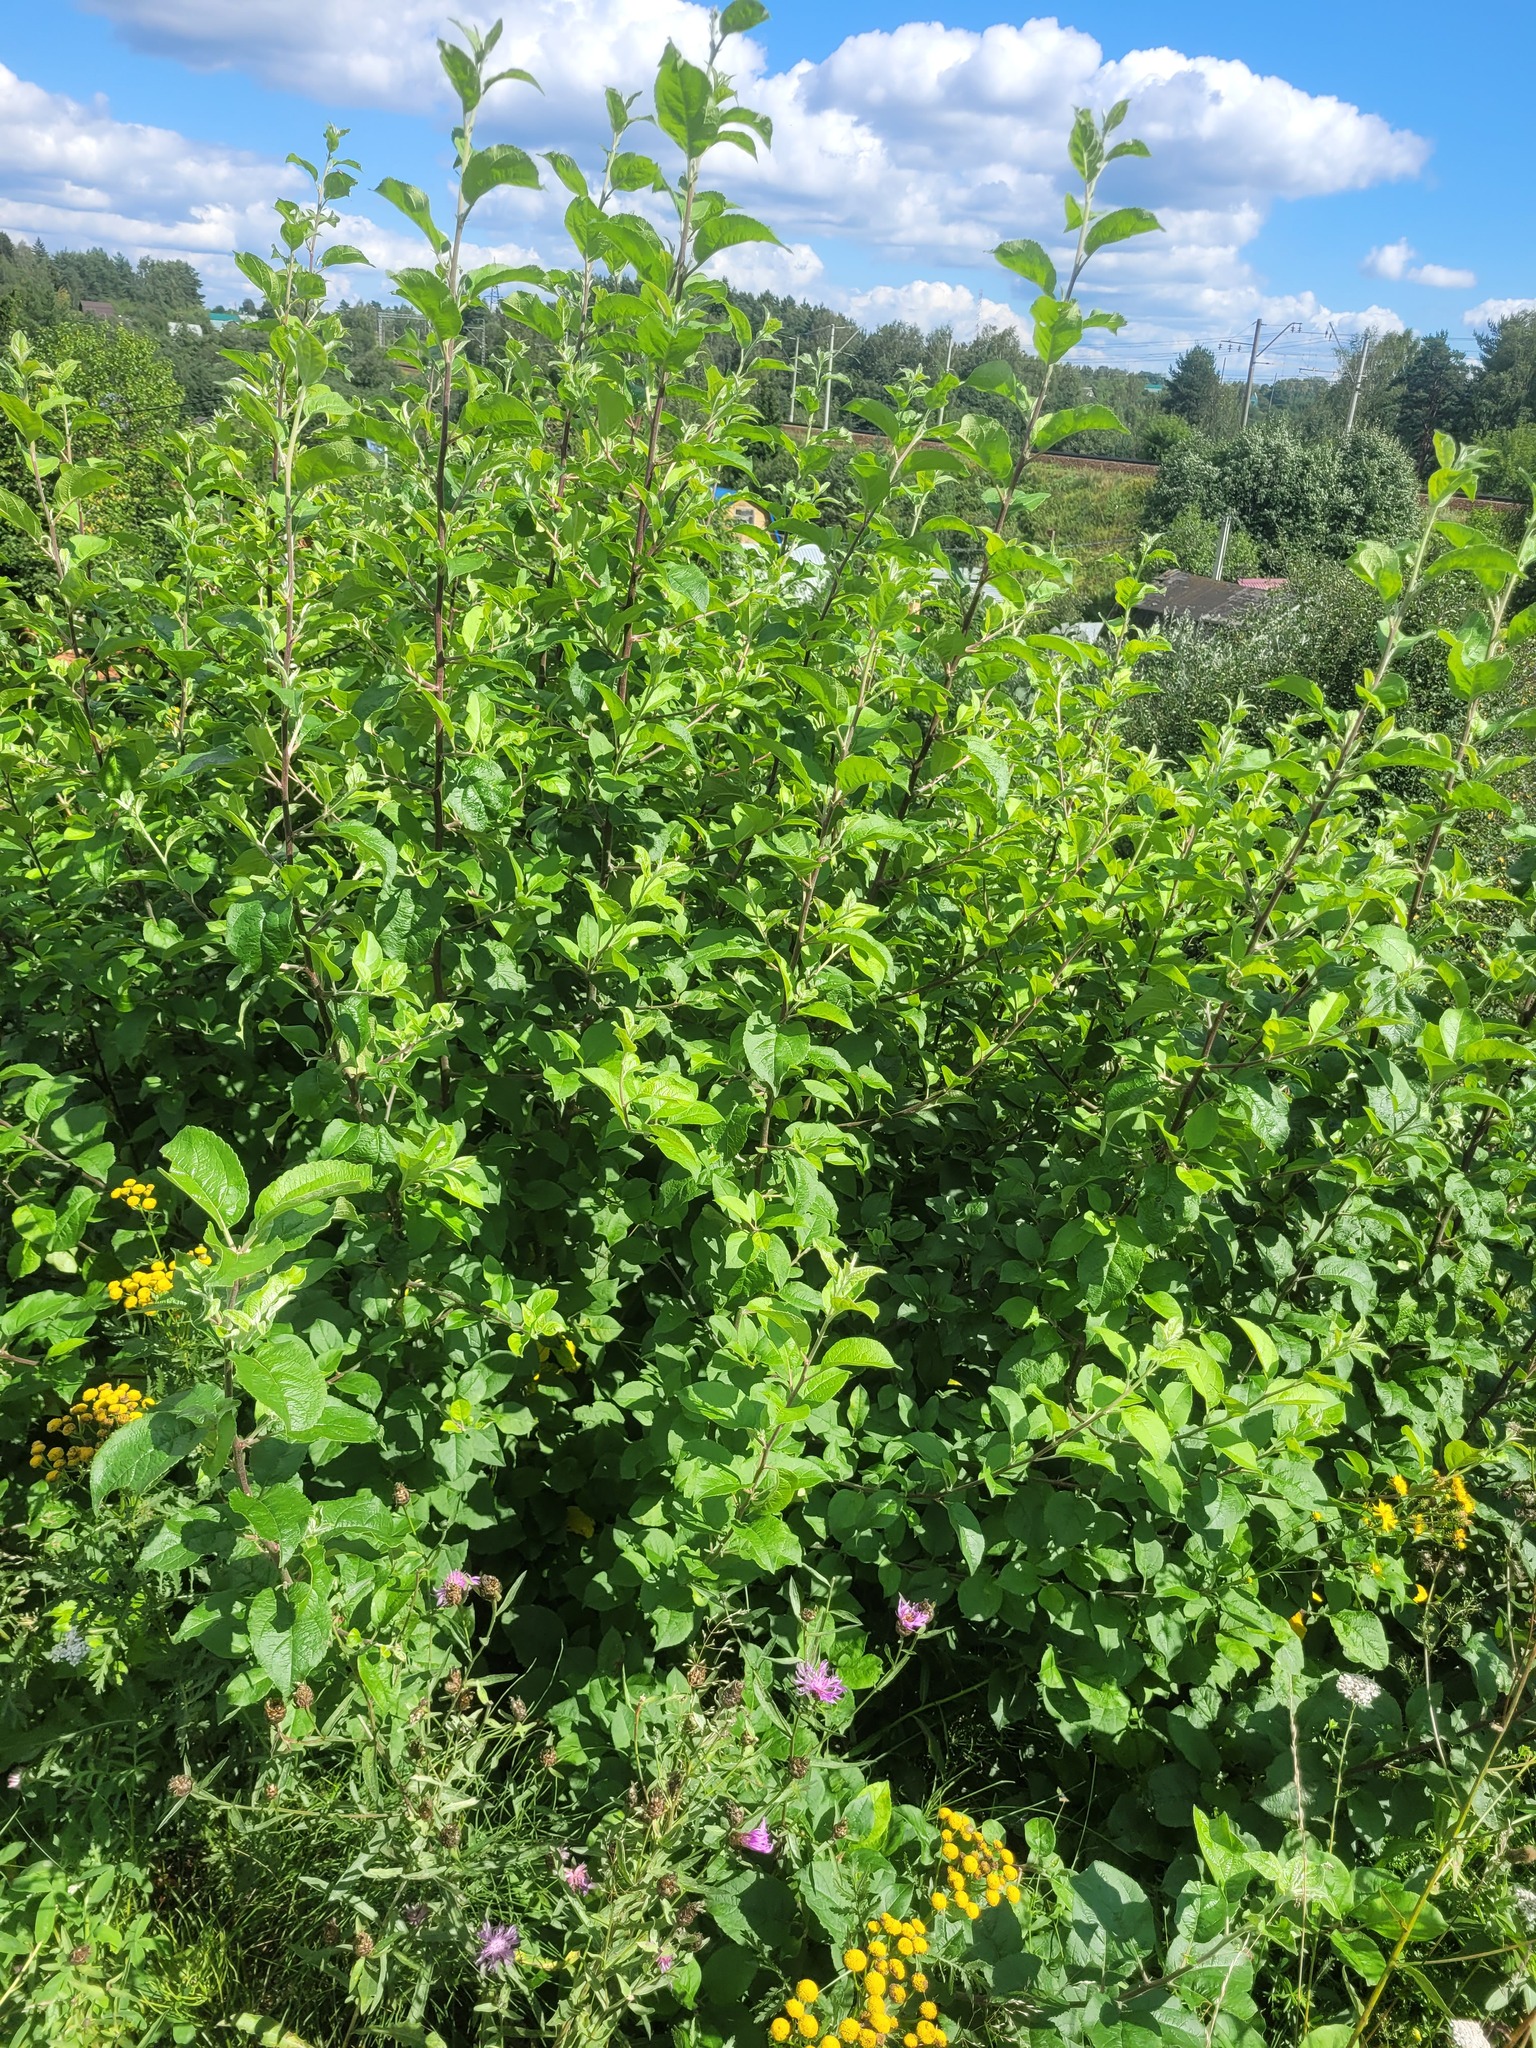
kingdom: Plantae
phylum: Tracheophyta
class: Magnoliopsida
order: Rosales
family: Rosaceae
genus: Malus
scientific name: Malus domestica
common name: Apple
